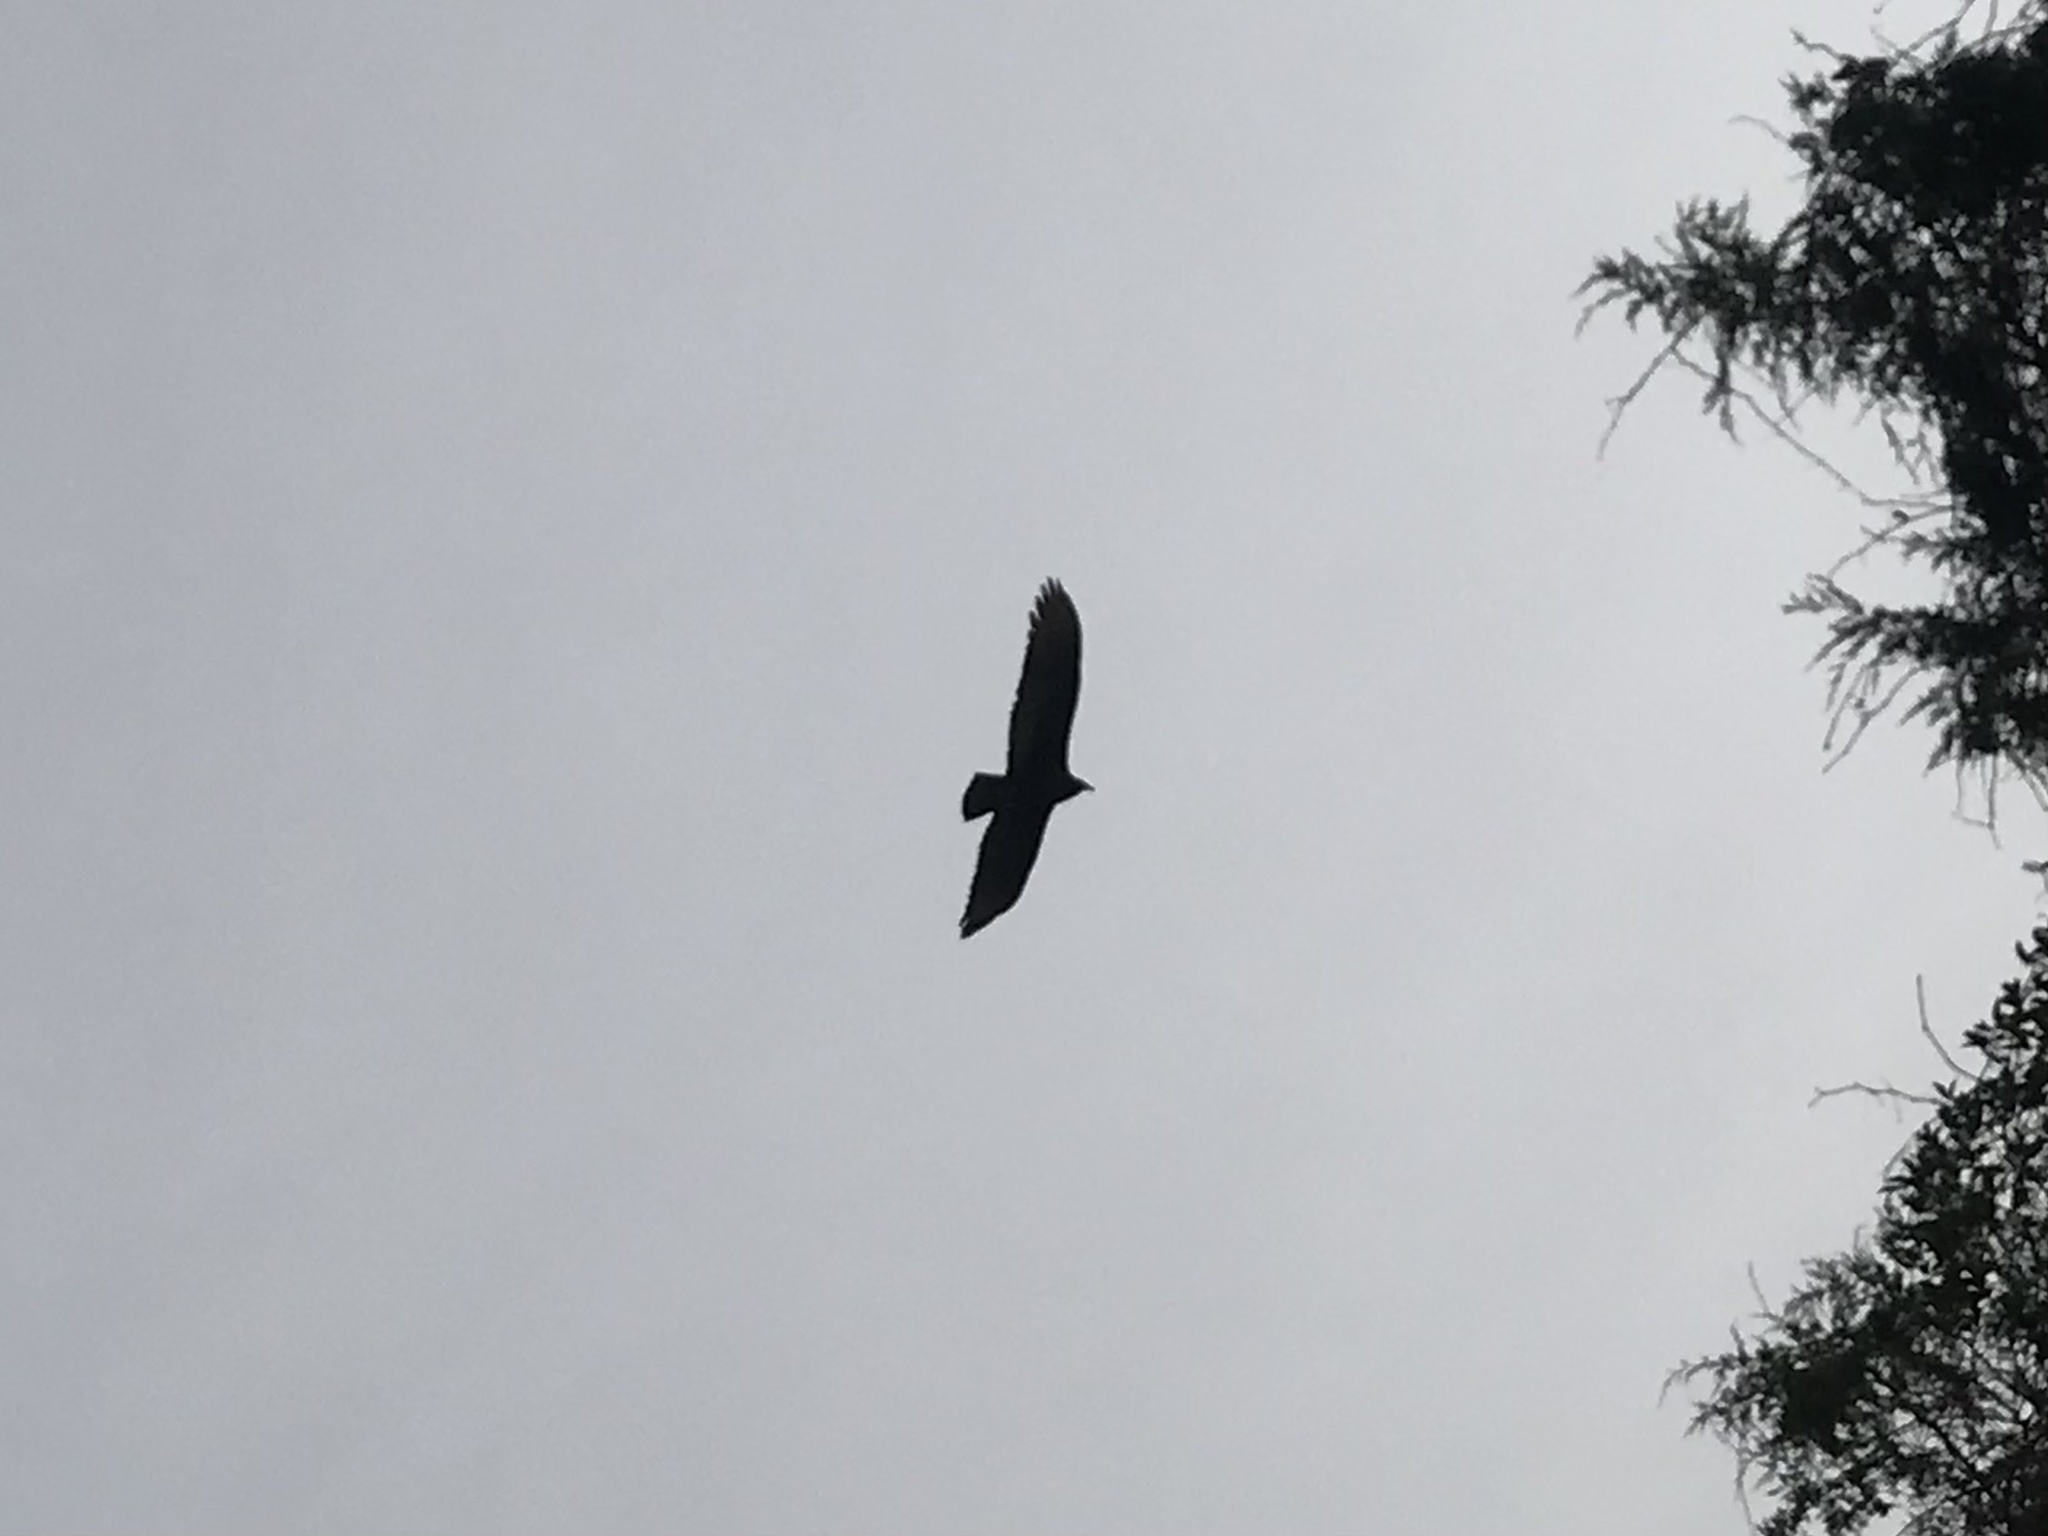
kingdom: Animalia
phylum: Chordata
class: Aves
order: Accipitriformes
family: Cathartidae
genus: Cathartes
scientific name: Cathartes aura
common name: Turkey vulture
